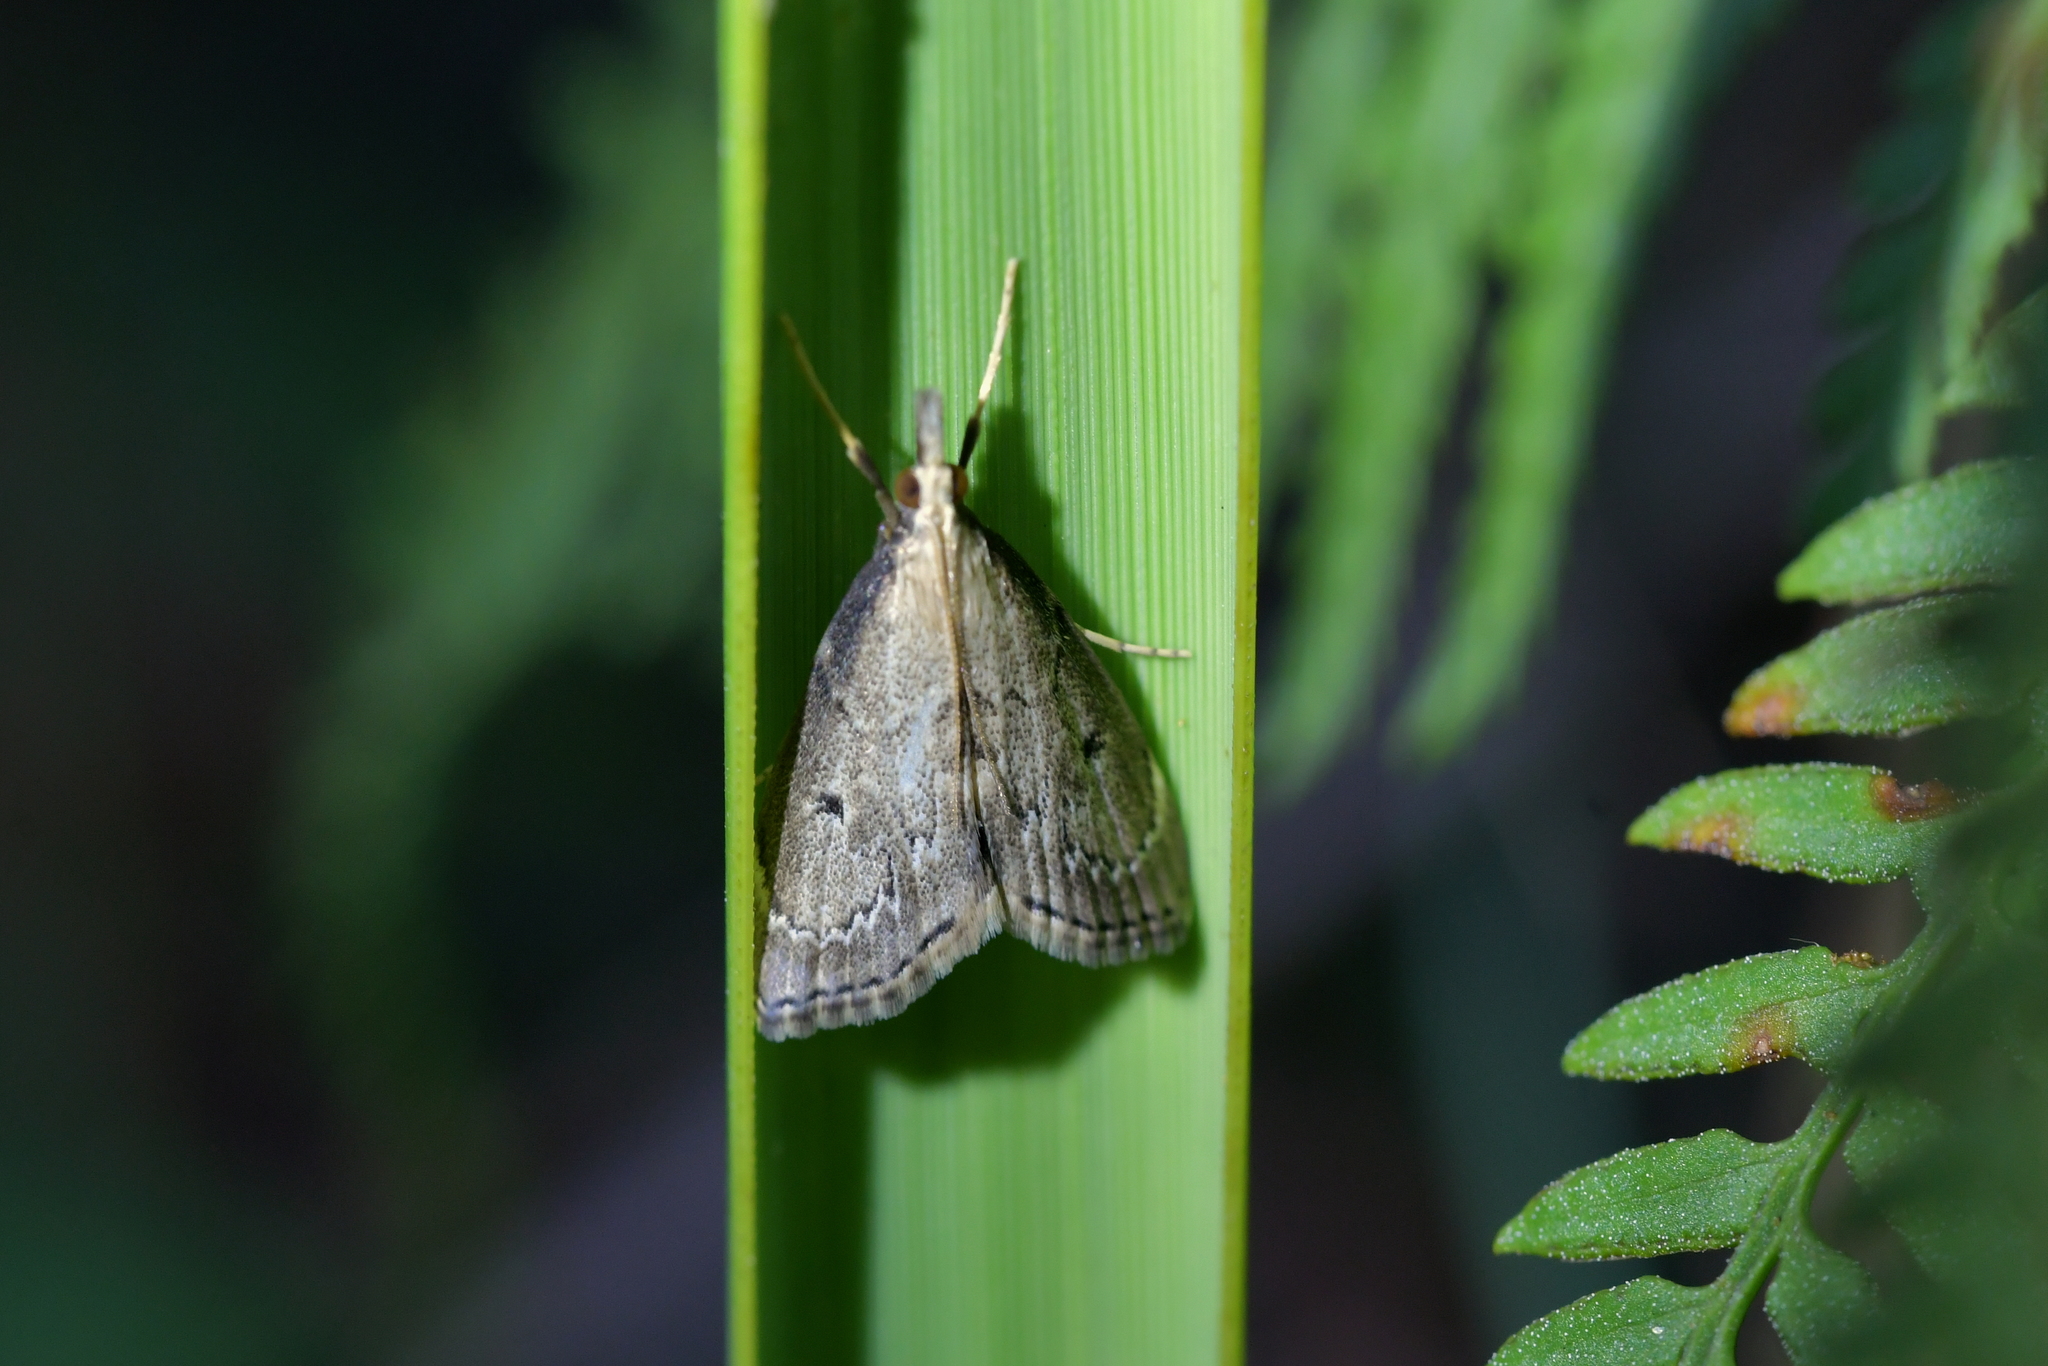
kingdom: Animalia
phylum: Arthropoda
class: Insecta
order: Lepidoptera
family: Crambidae
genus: Clepsicosma
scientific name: Clepsicosma iridia
